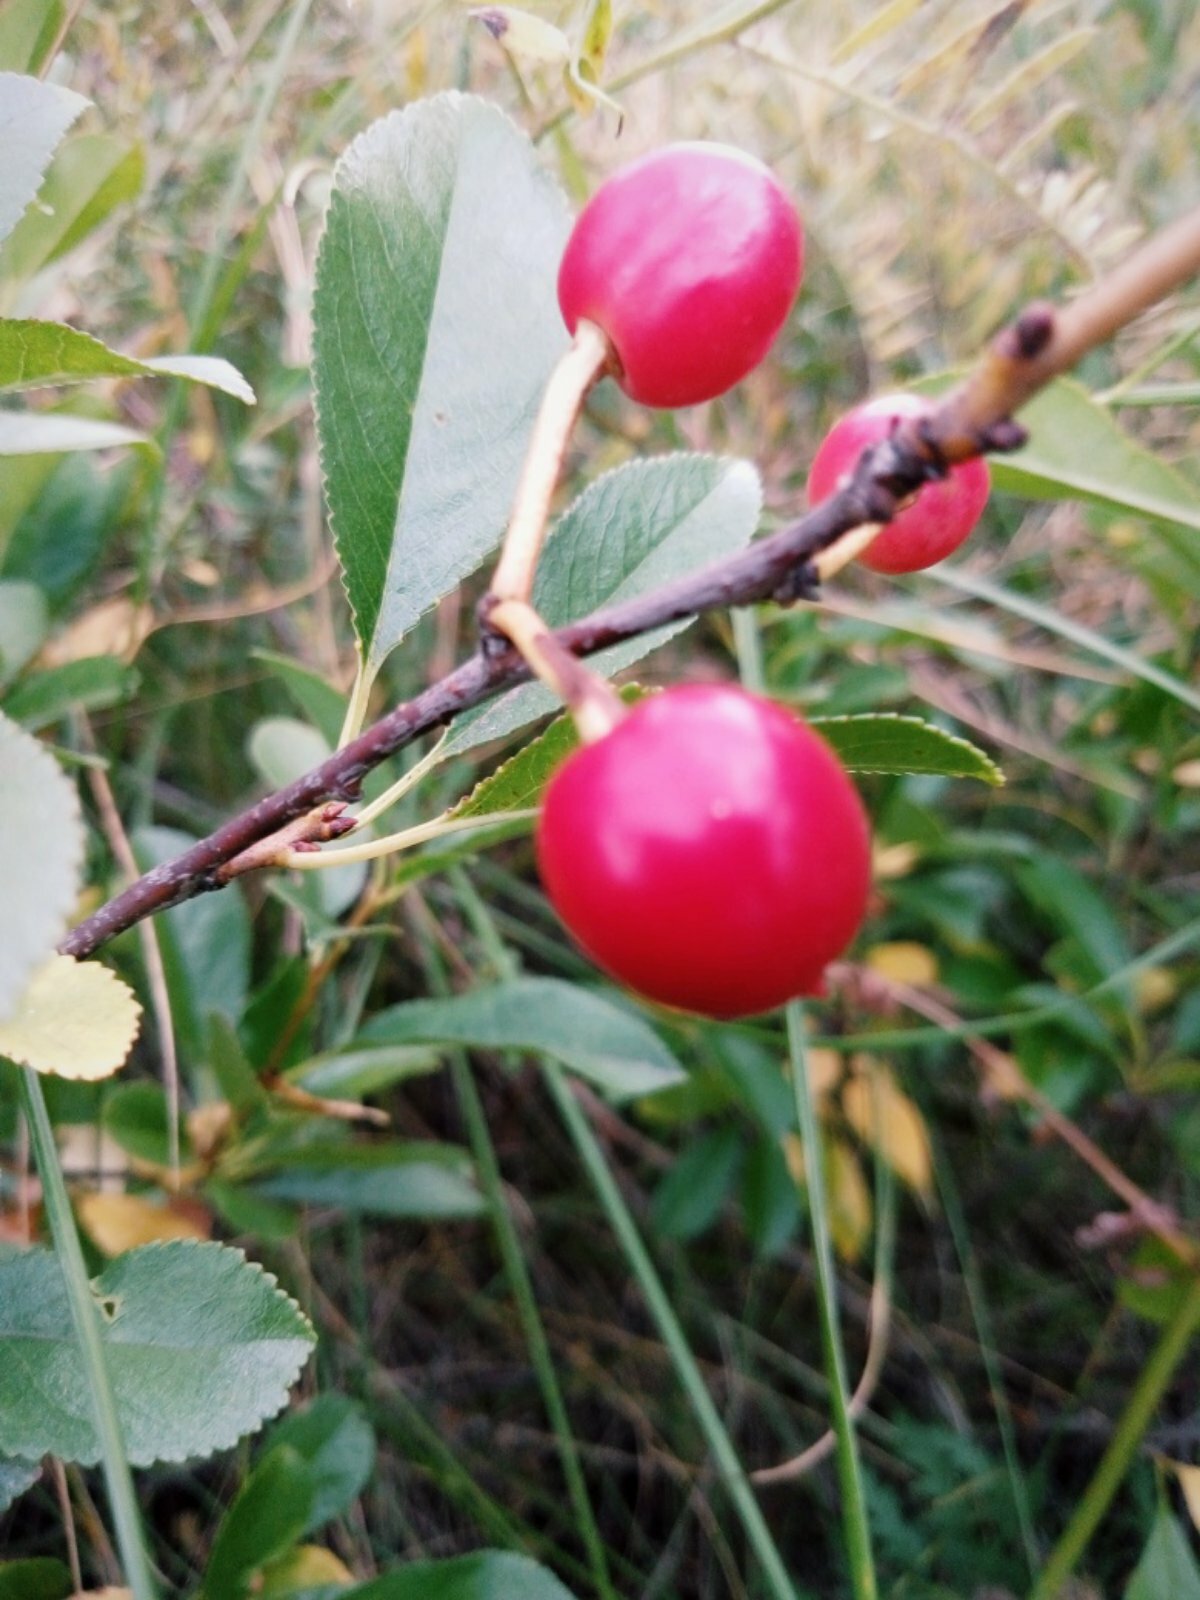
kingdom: Plantae
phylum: Tracheophyta
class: Magnoliopsida
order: Rosales
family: Rosaceae
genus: Prunus
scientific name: Prunus fruticosa
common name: European dwarf cherry
